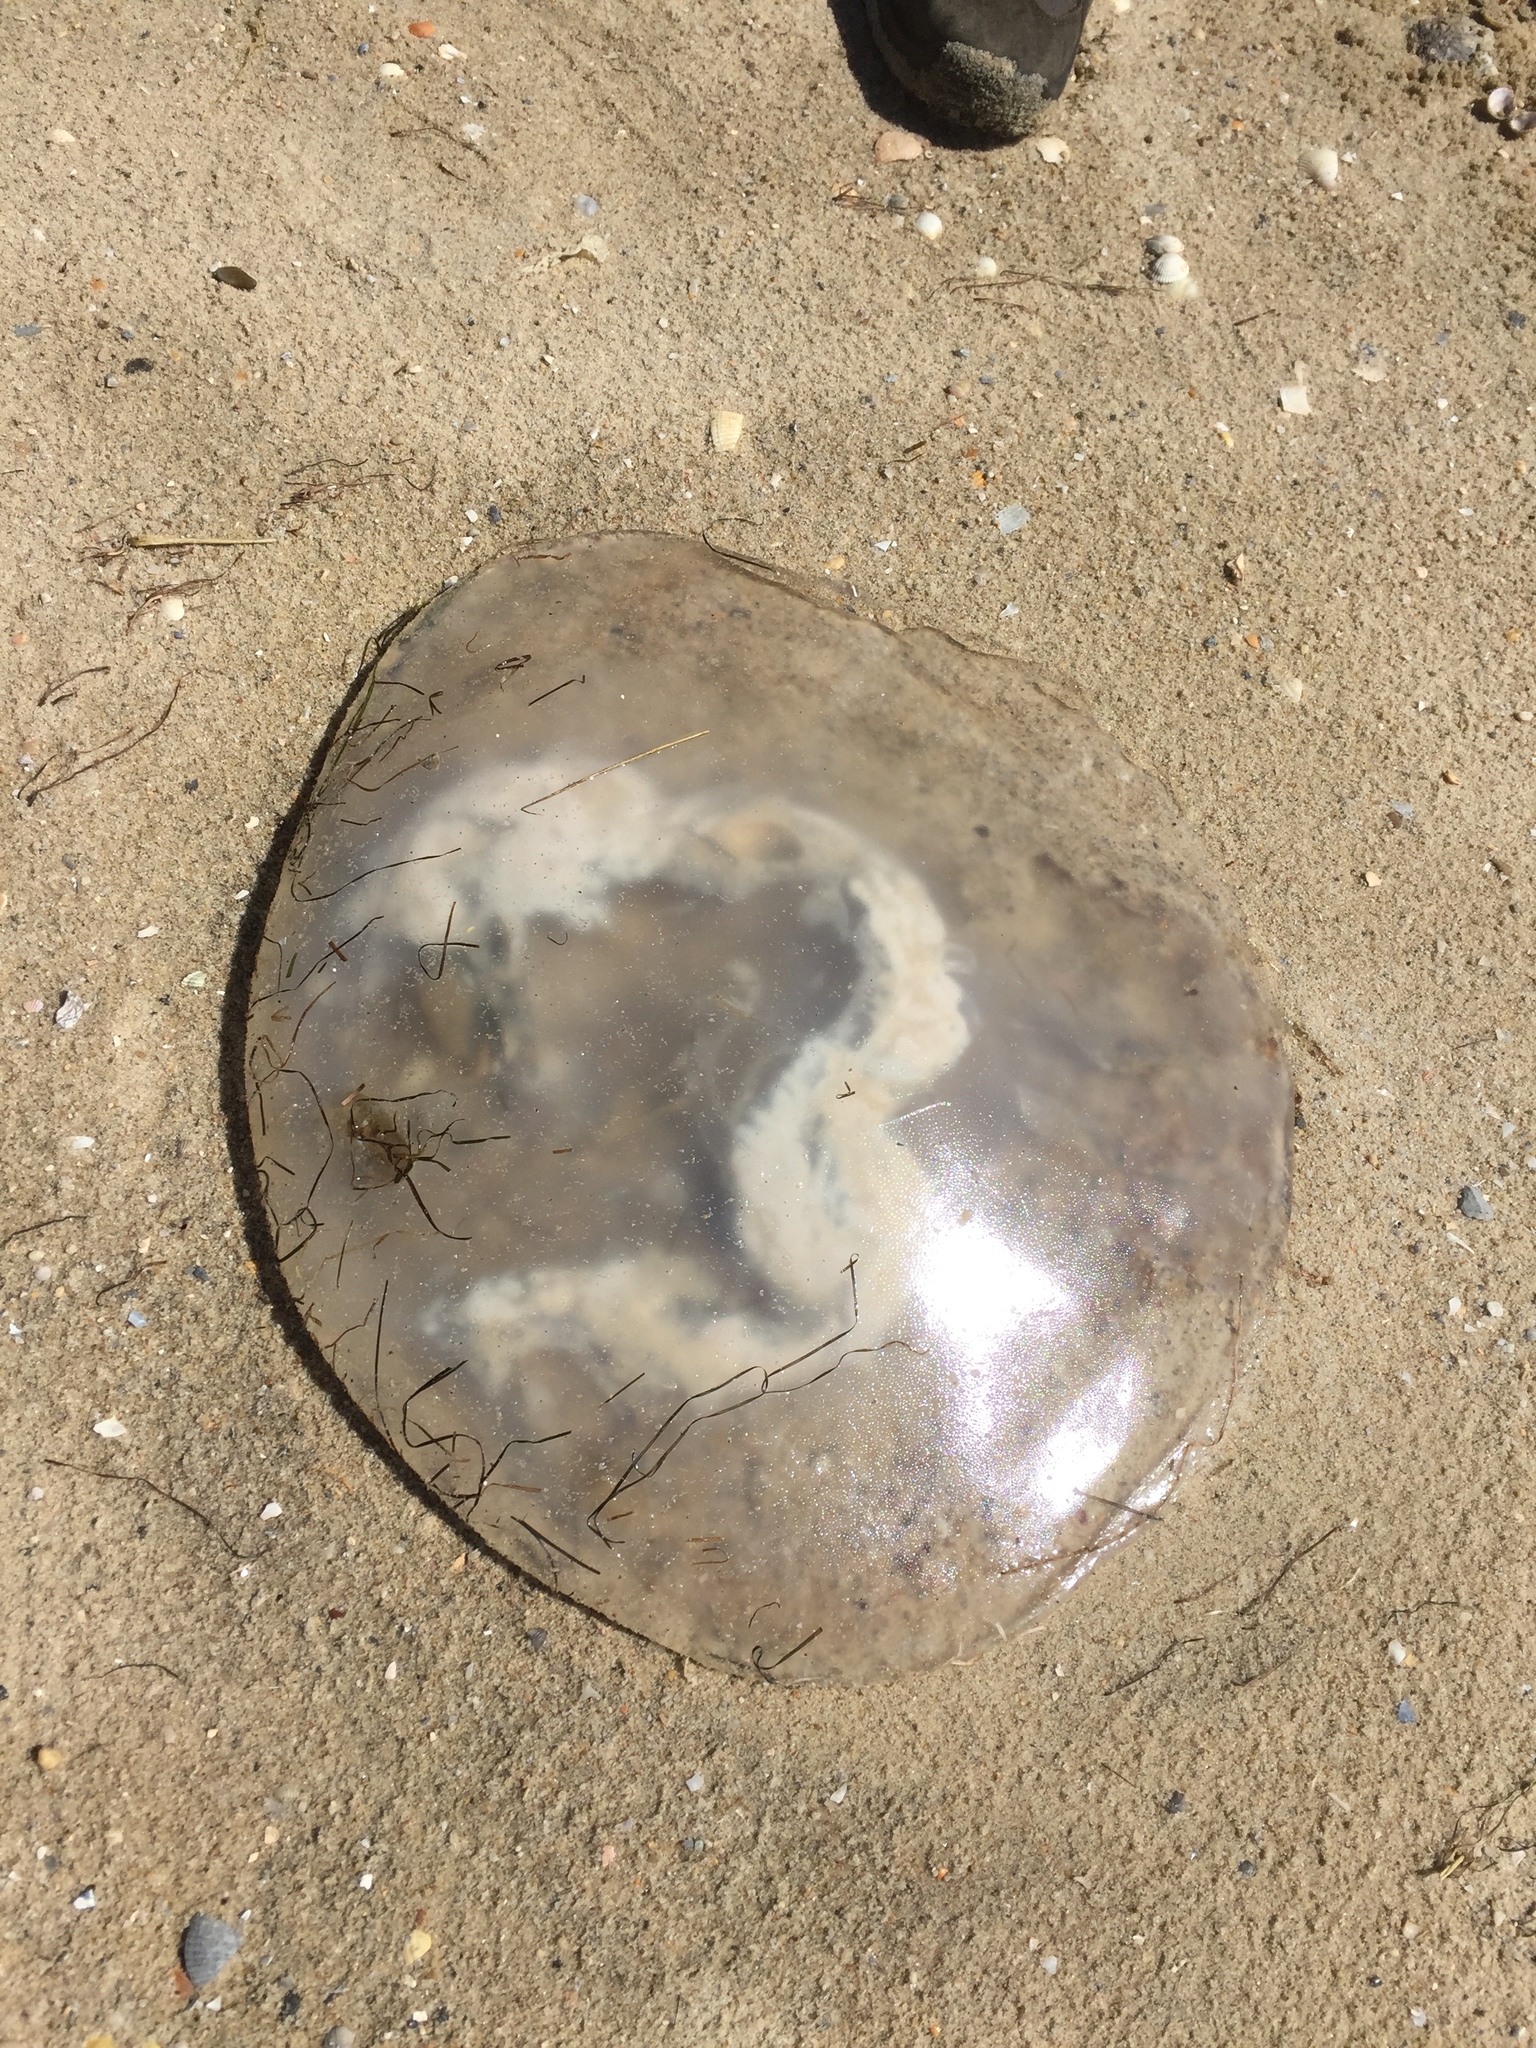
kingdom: Animalia
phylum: Cnidaria
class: Scyphozoa
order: Rhizostomeae
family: Rhizostomatidae
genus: Rhizostoma
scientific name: Rhizostoma luteum
